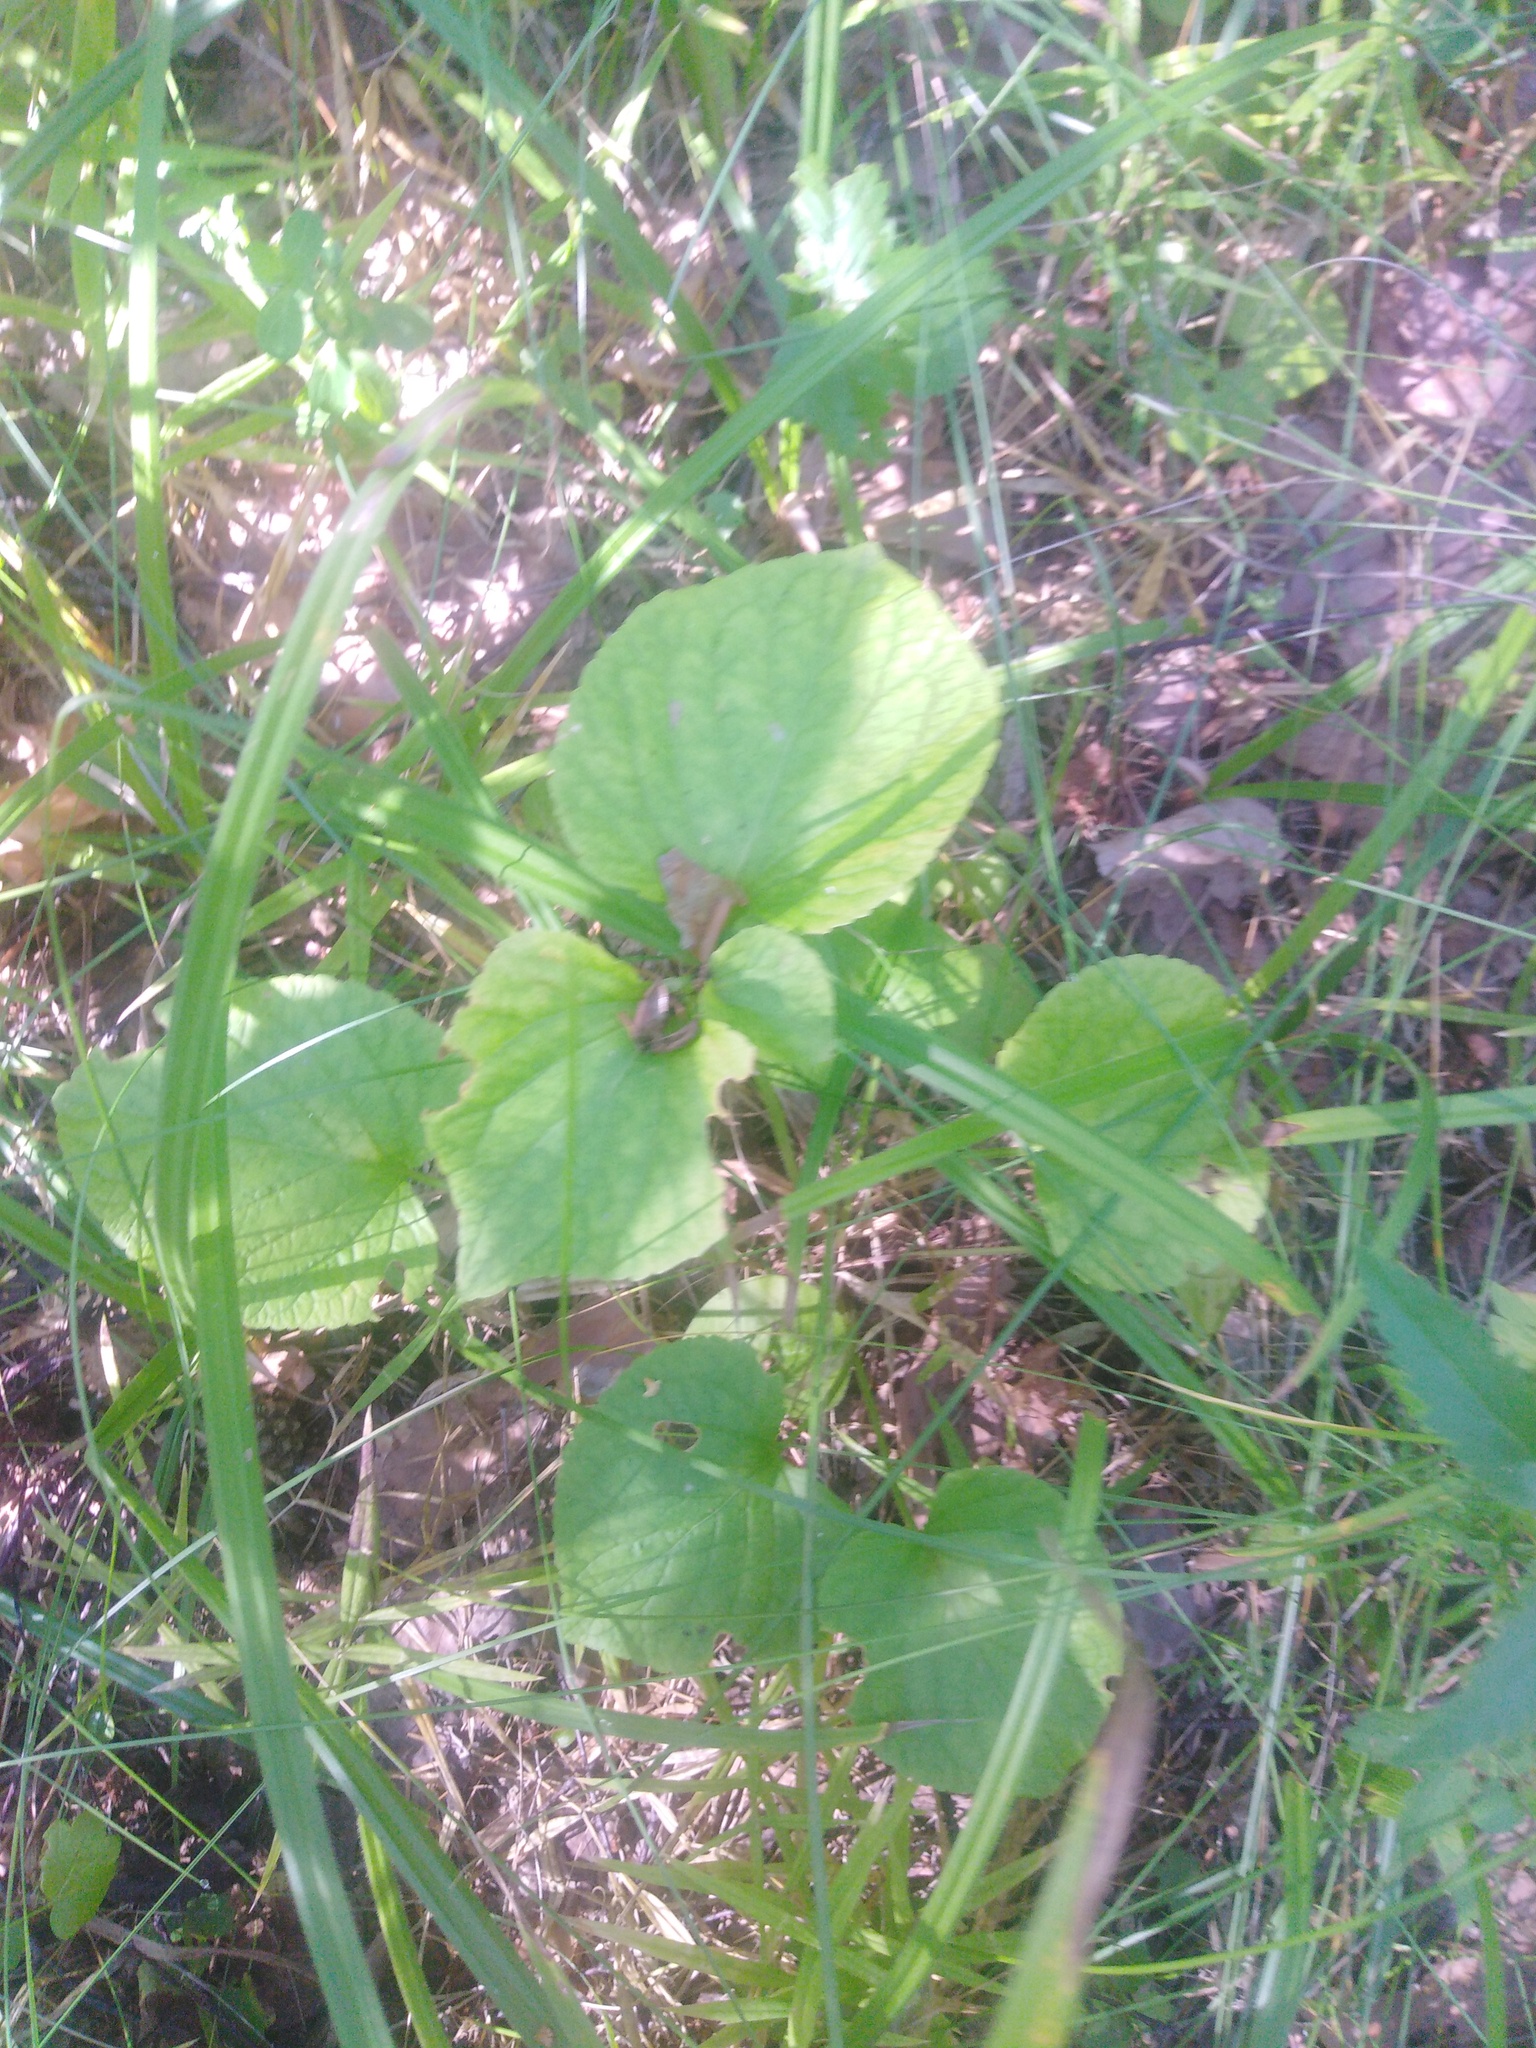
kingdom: Plantae
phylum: Tracheophyta
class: Magnoliopsida
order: Malpighiales
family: Violaceae
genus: Viola
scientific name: Viola mirabilis
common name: Wonder violet
